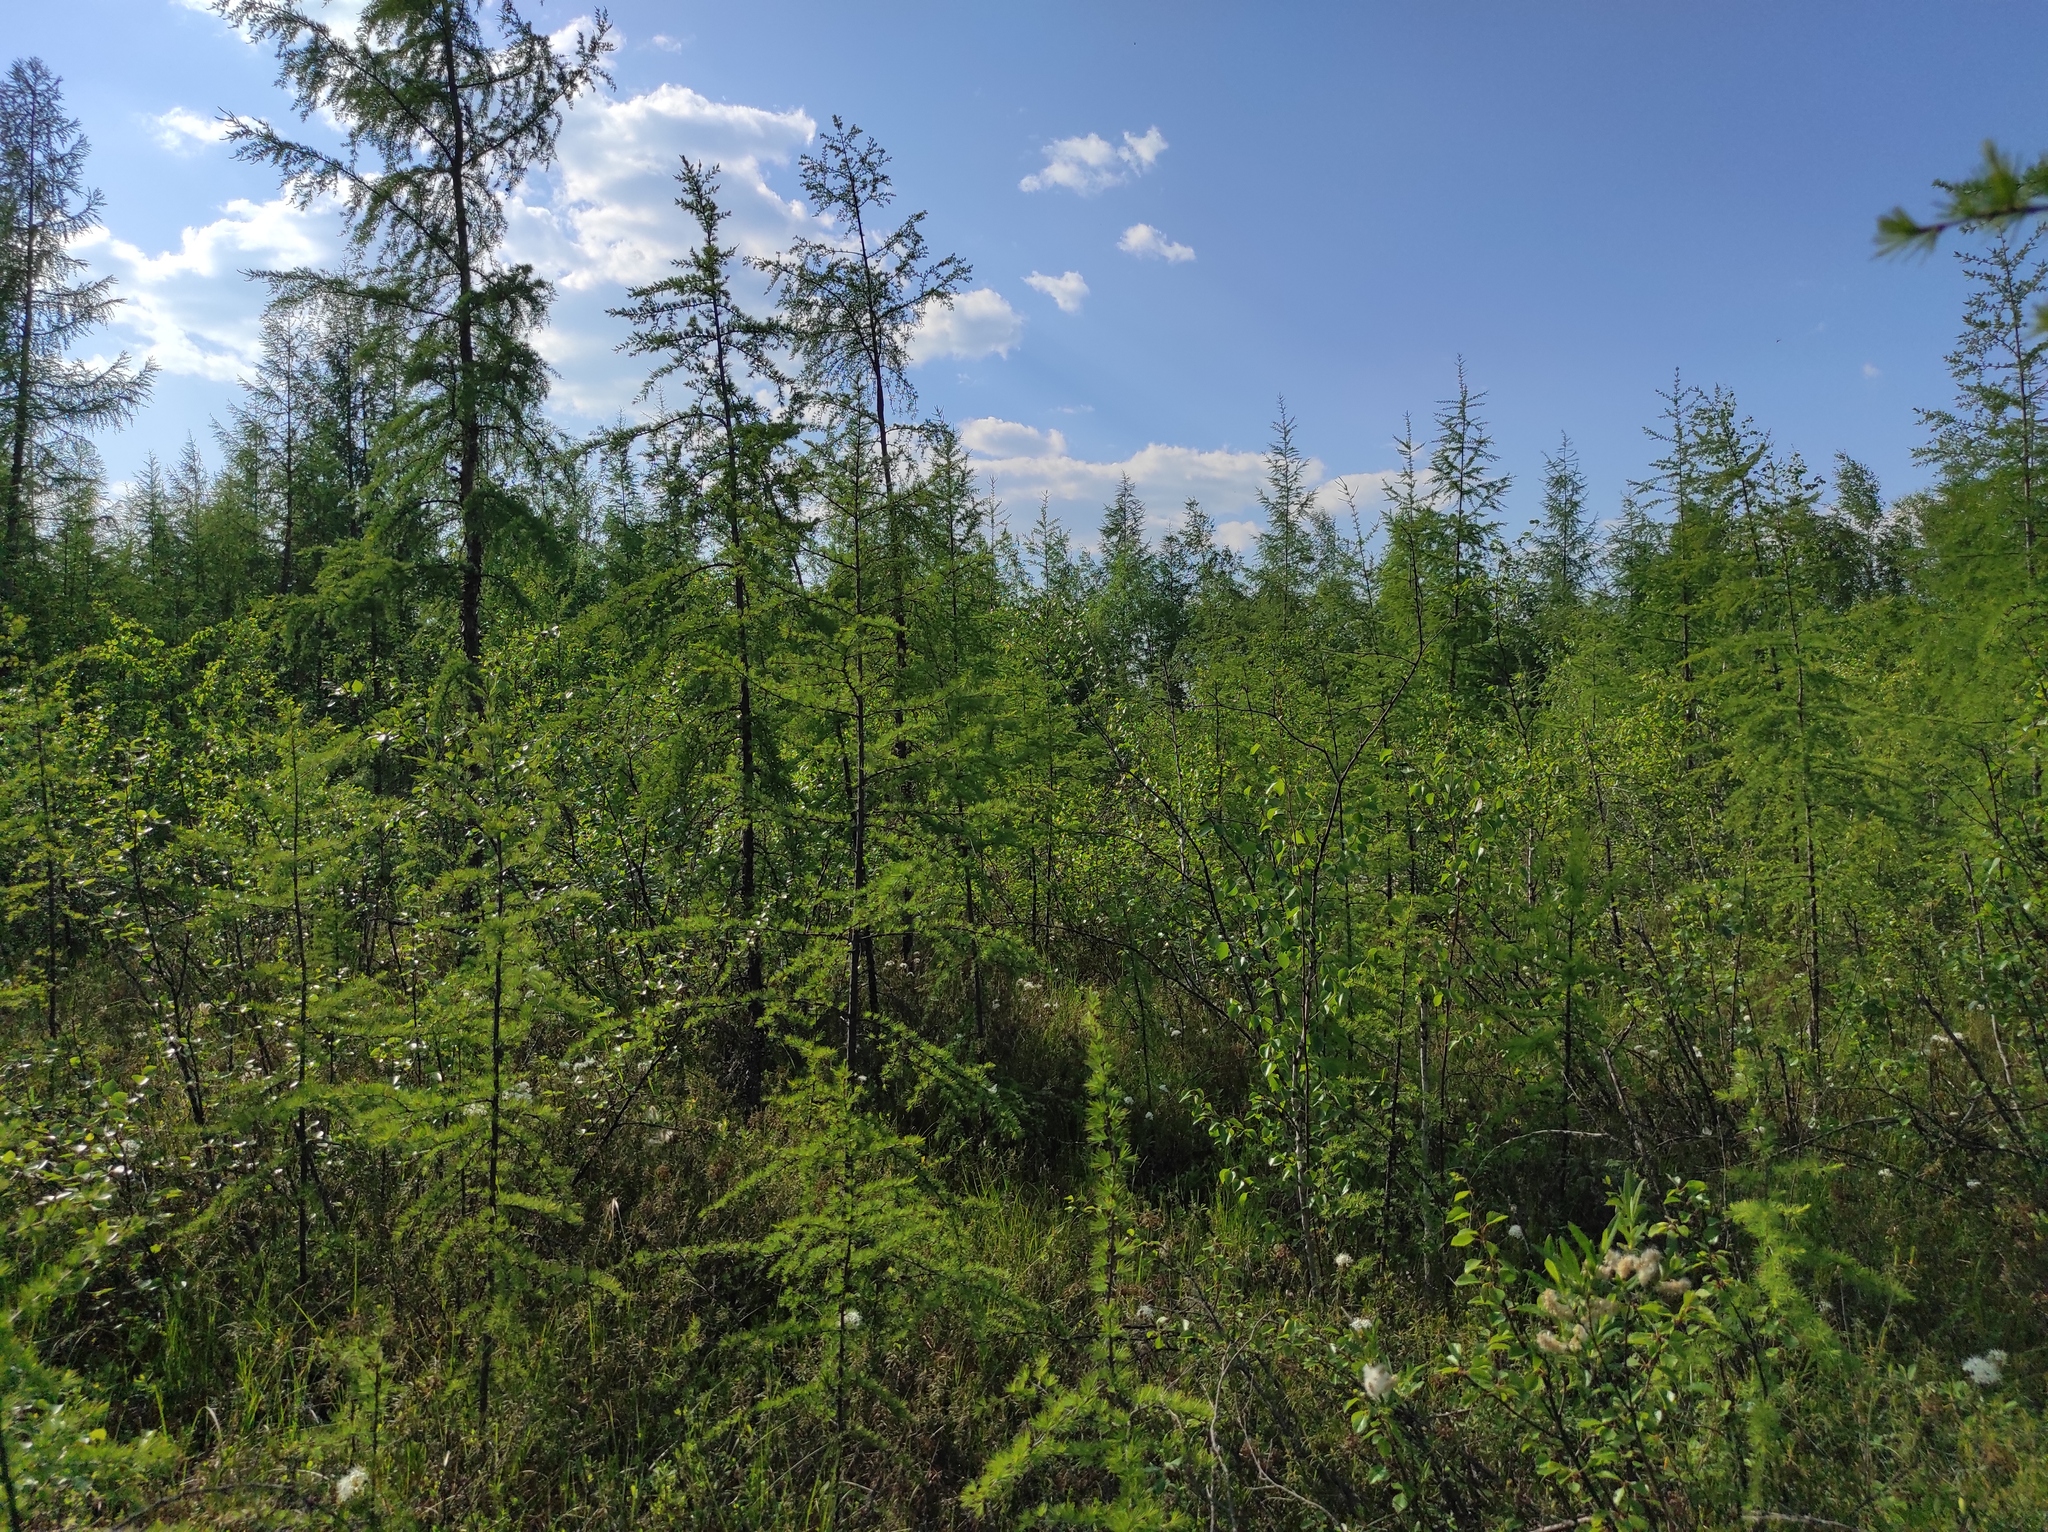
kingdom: Plantae
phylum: Tracheophyta
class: Magnoliopsida
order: Ericales
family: Ericaceae
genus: Vaccinium
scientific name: Vaccinium vitis-idaea
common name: Cowberry
